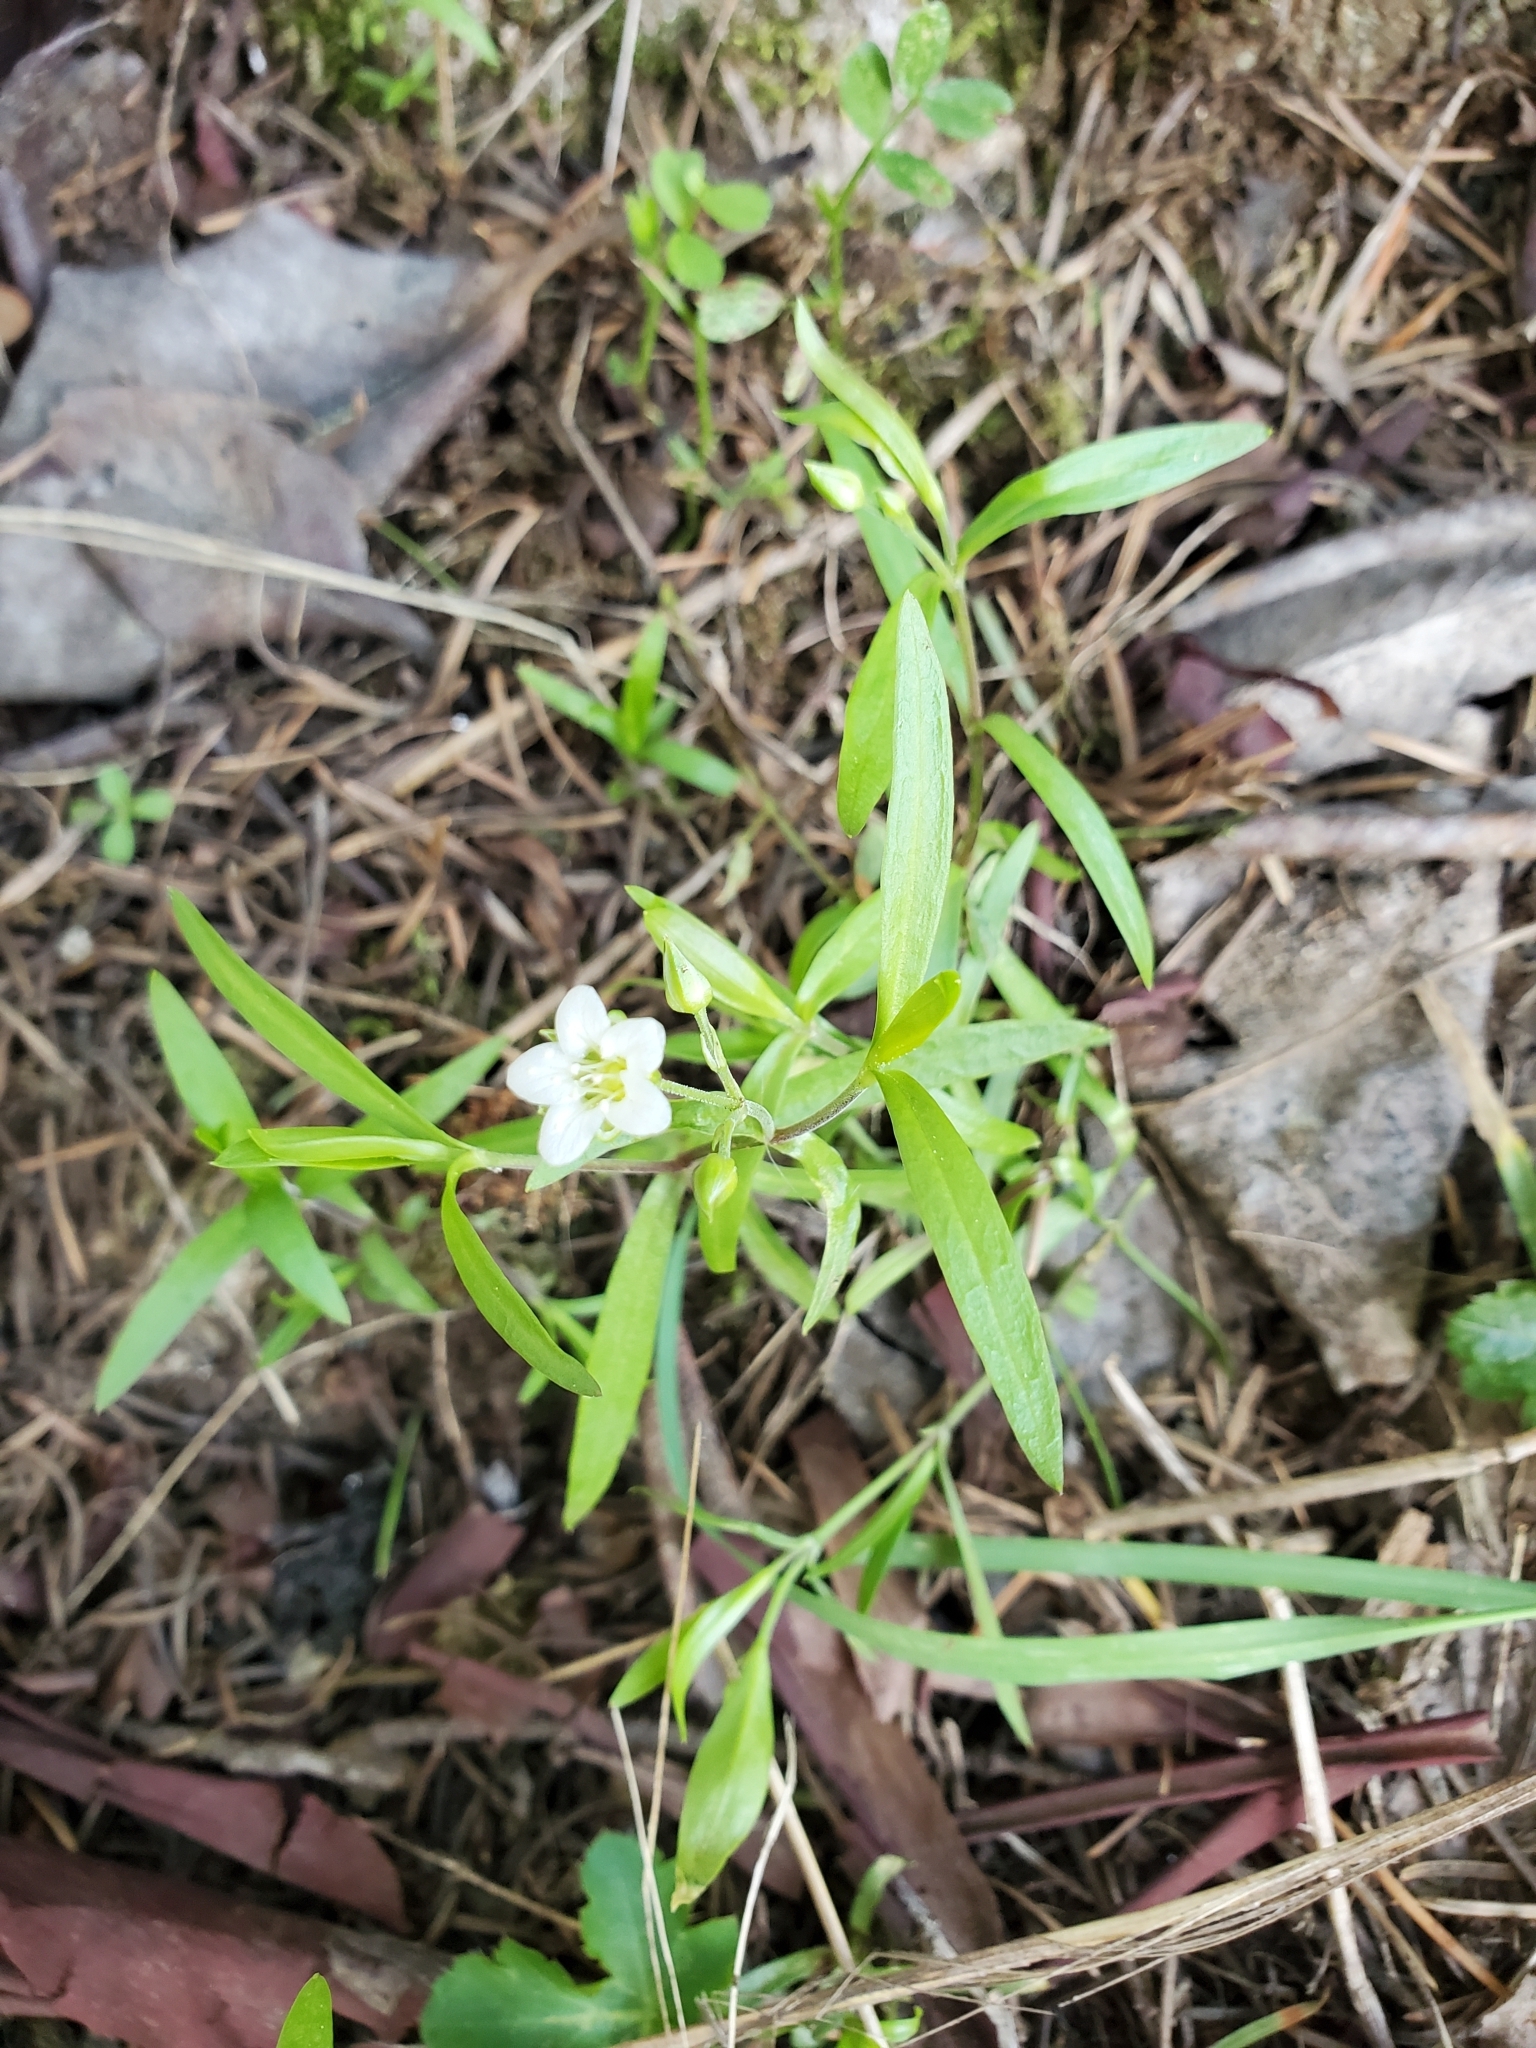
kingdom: Plantae
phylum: Tracheophyta
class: Magnoliopsida
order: Caryophyllales
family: Caryophyllaceae
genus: Moehringia
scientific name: Moehringia macrophylla
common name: Big-leaf sandwort
